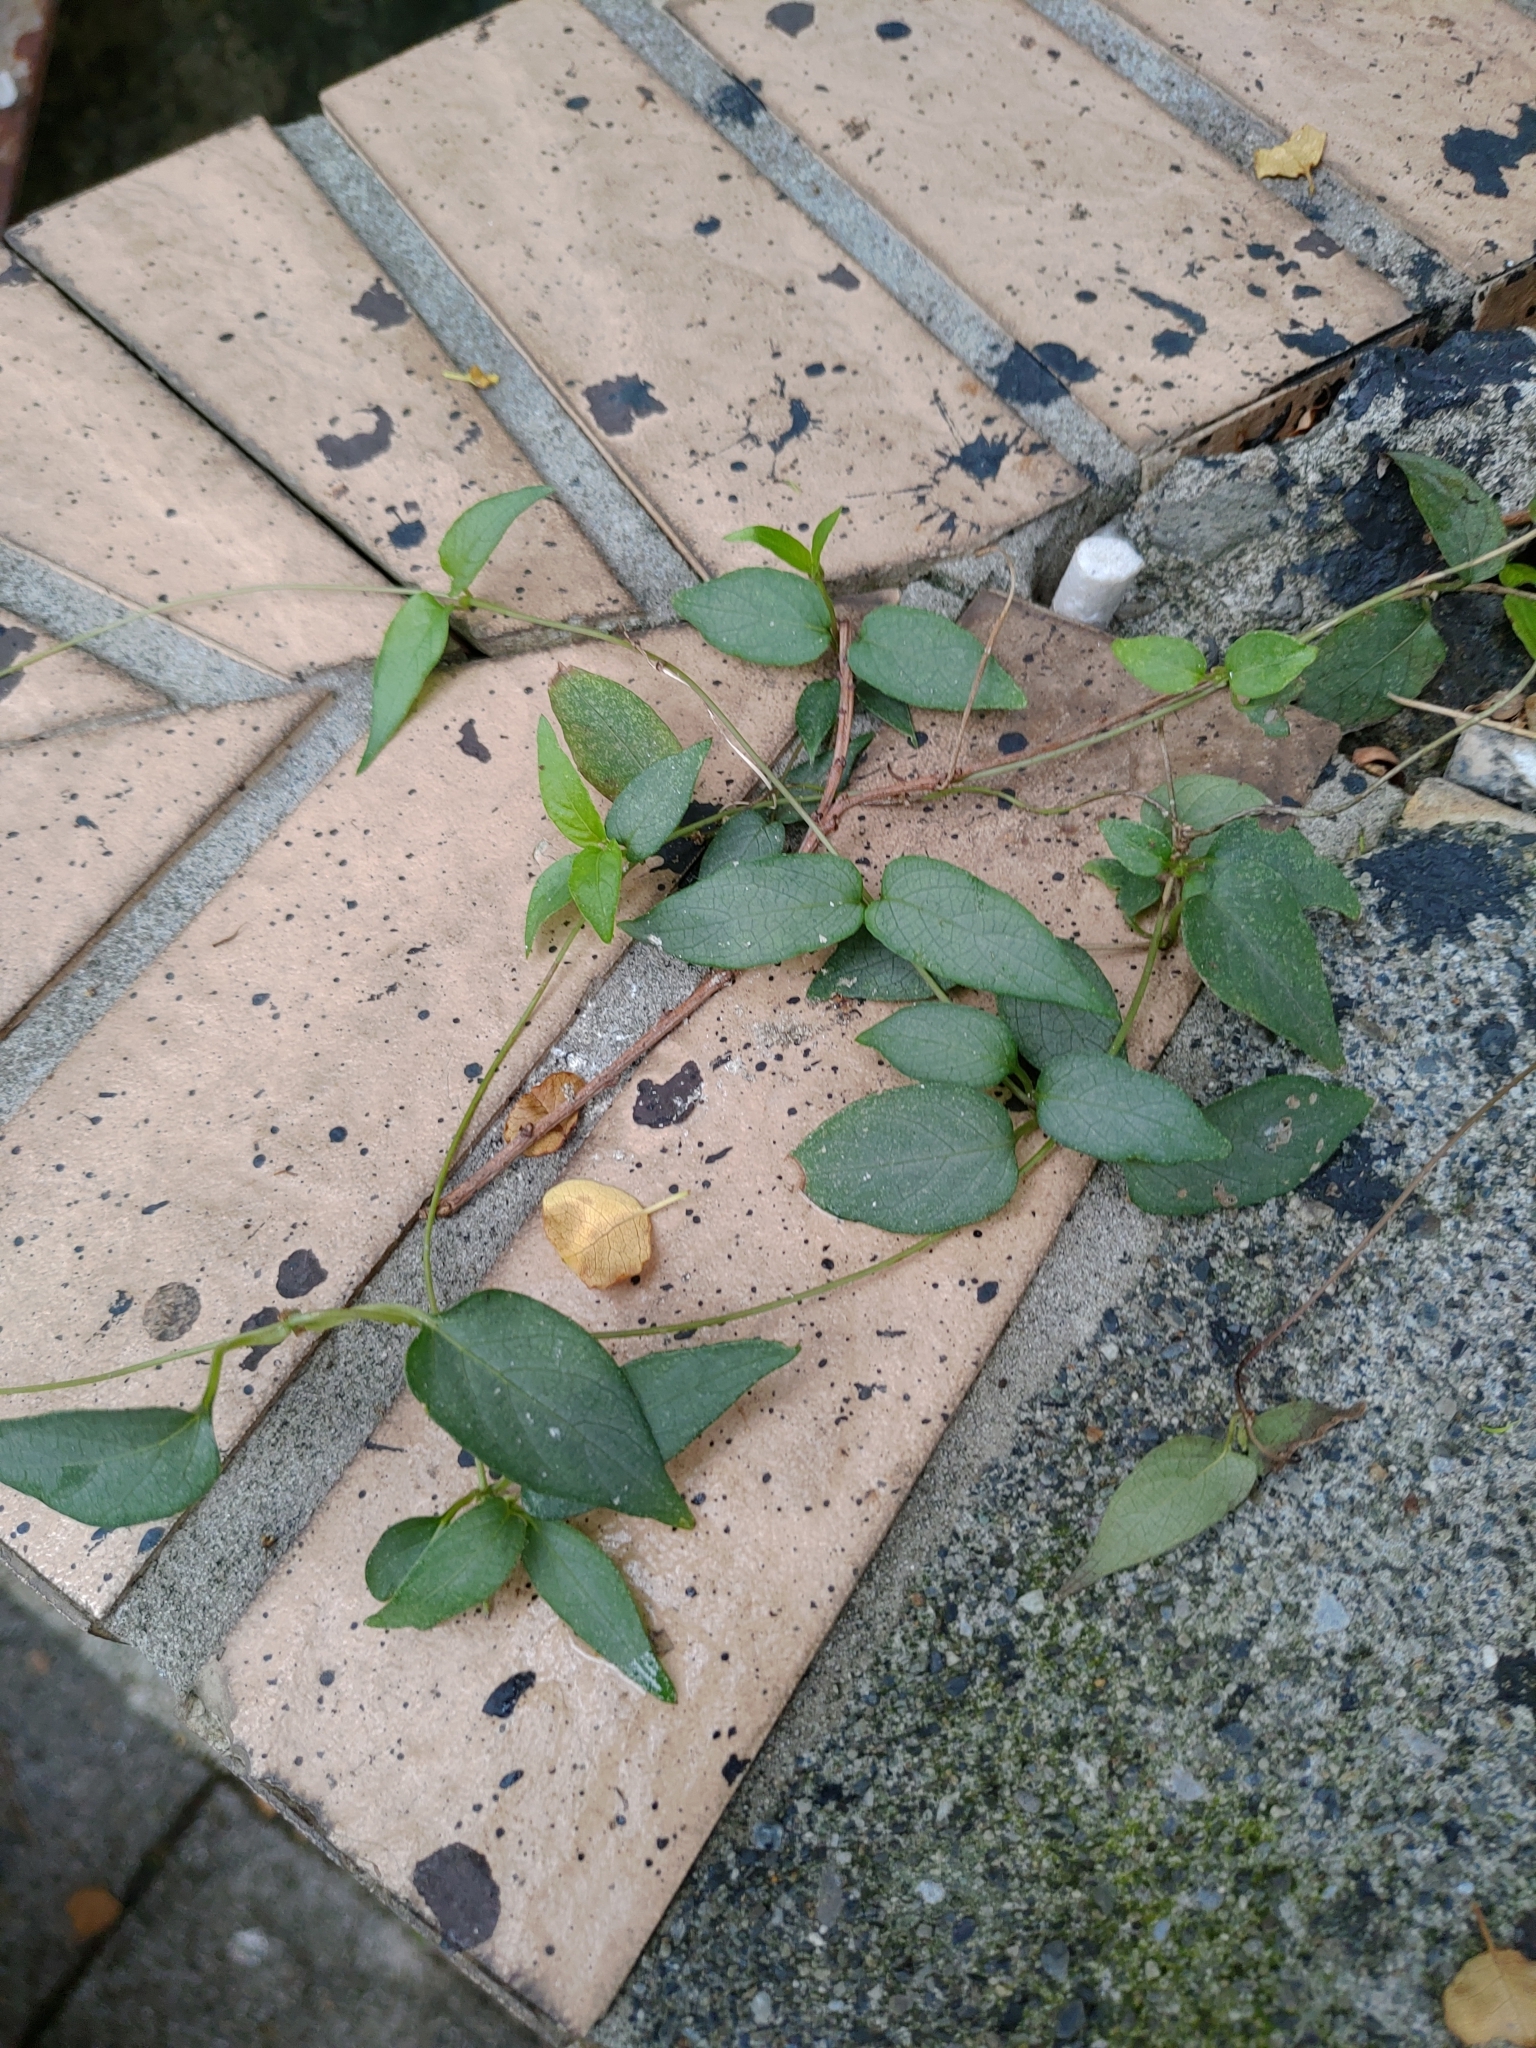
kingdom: Plantae
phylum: Tracheophyta
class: Magnoliopsida
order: Gentianales
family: Rubiaceae
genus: Paederia
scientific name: Paederia foetida
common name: Stinkvine
